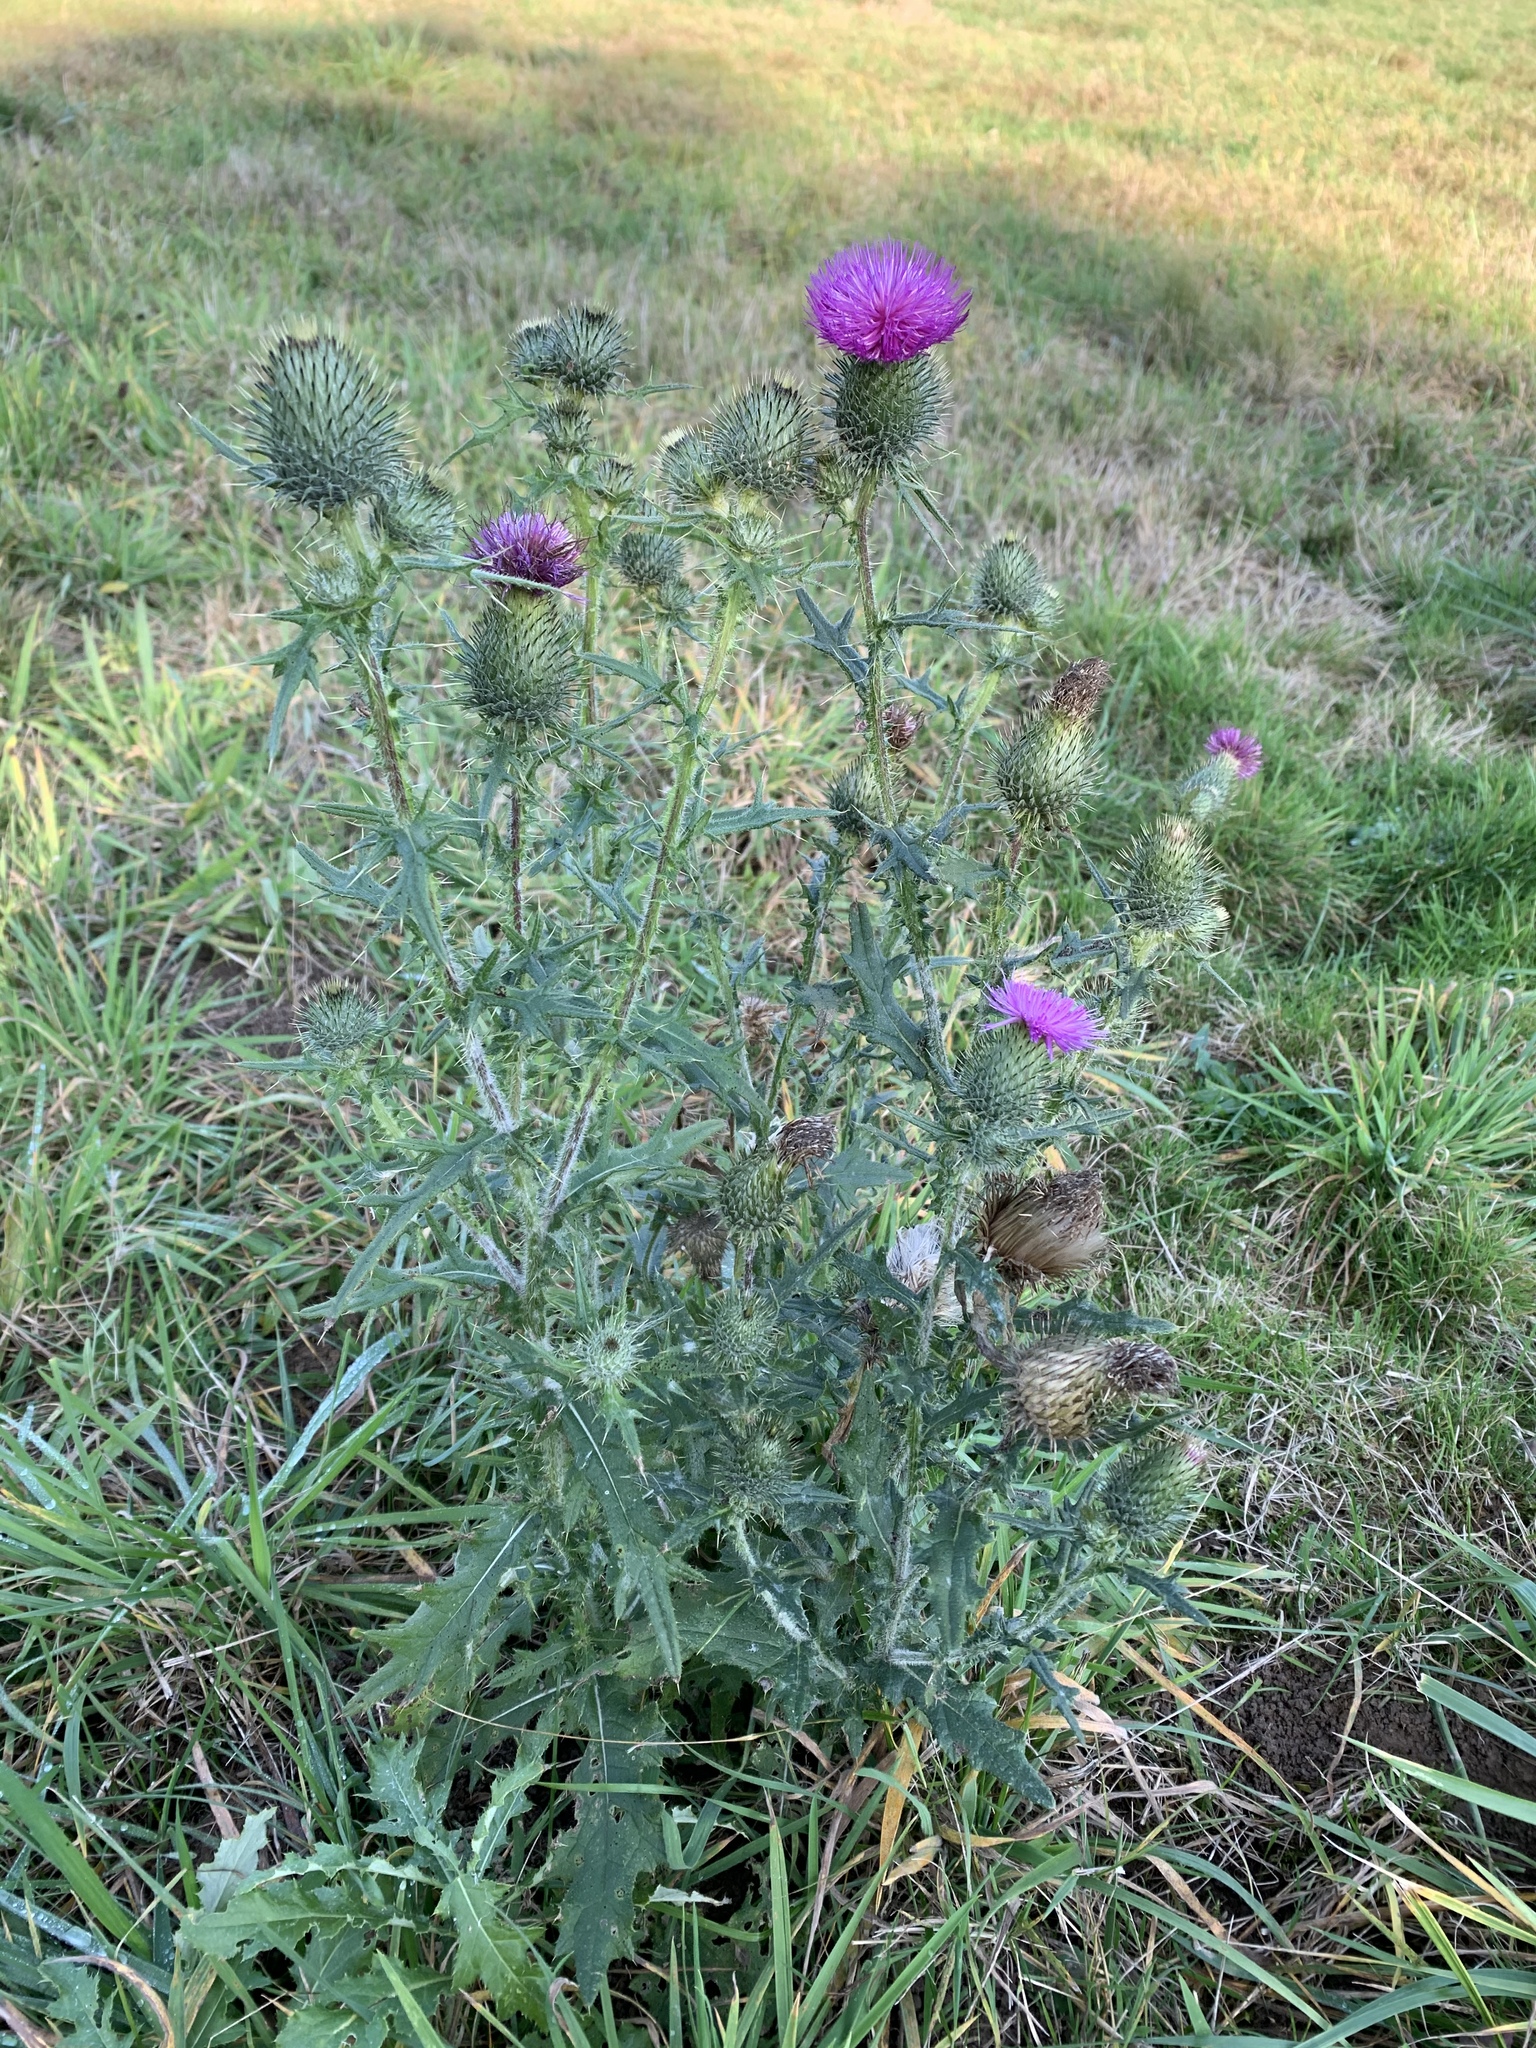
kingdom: Plantae
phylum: Tracheophyta
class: Magnoliopsida
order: Asterales
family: Asteraceae
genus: Cirsium
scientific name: Cirsium vulgare
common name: Bull thistle
